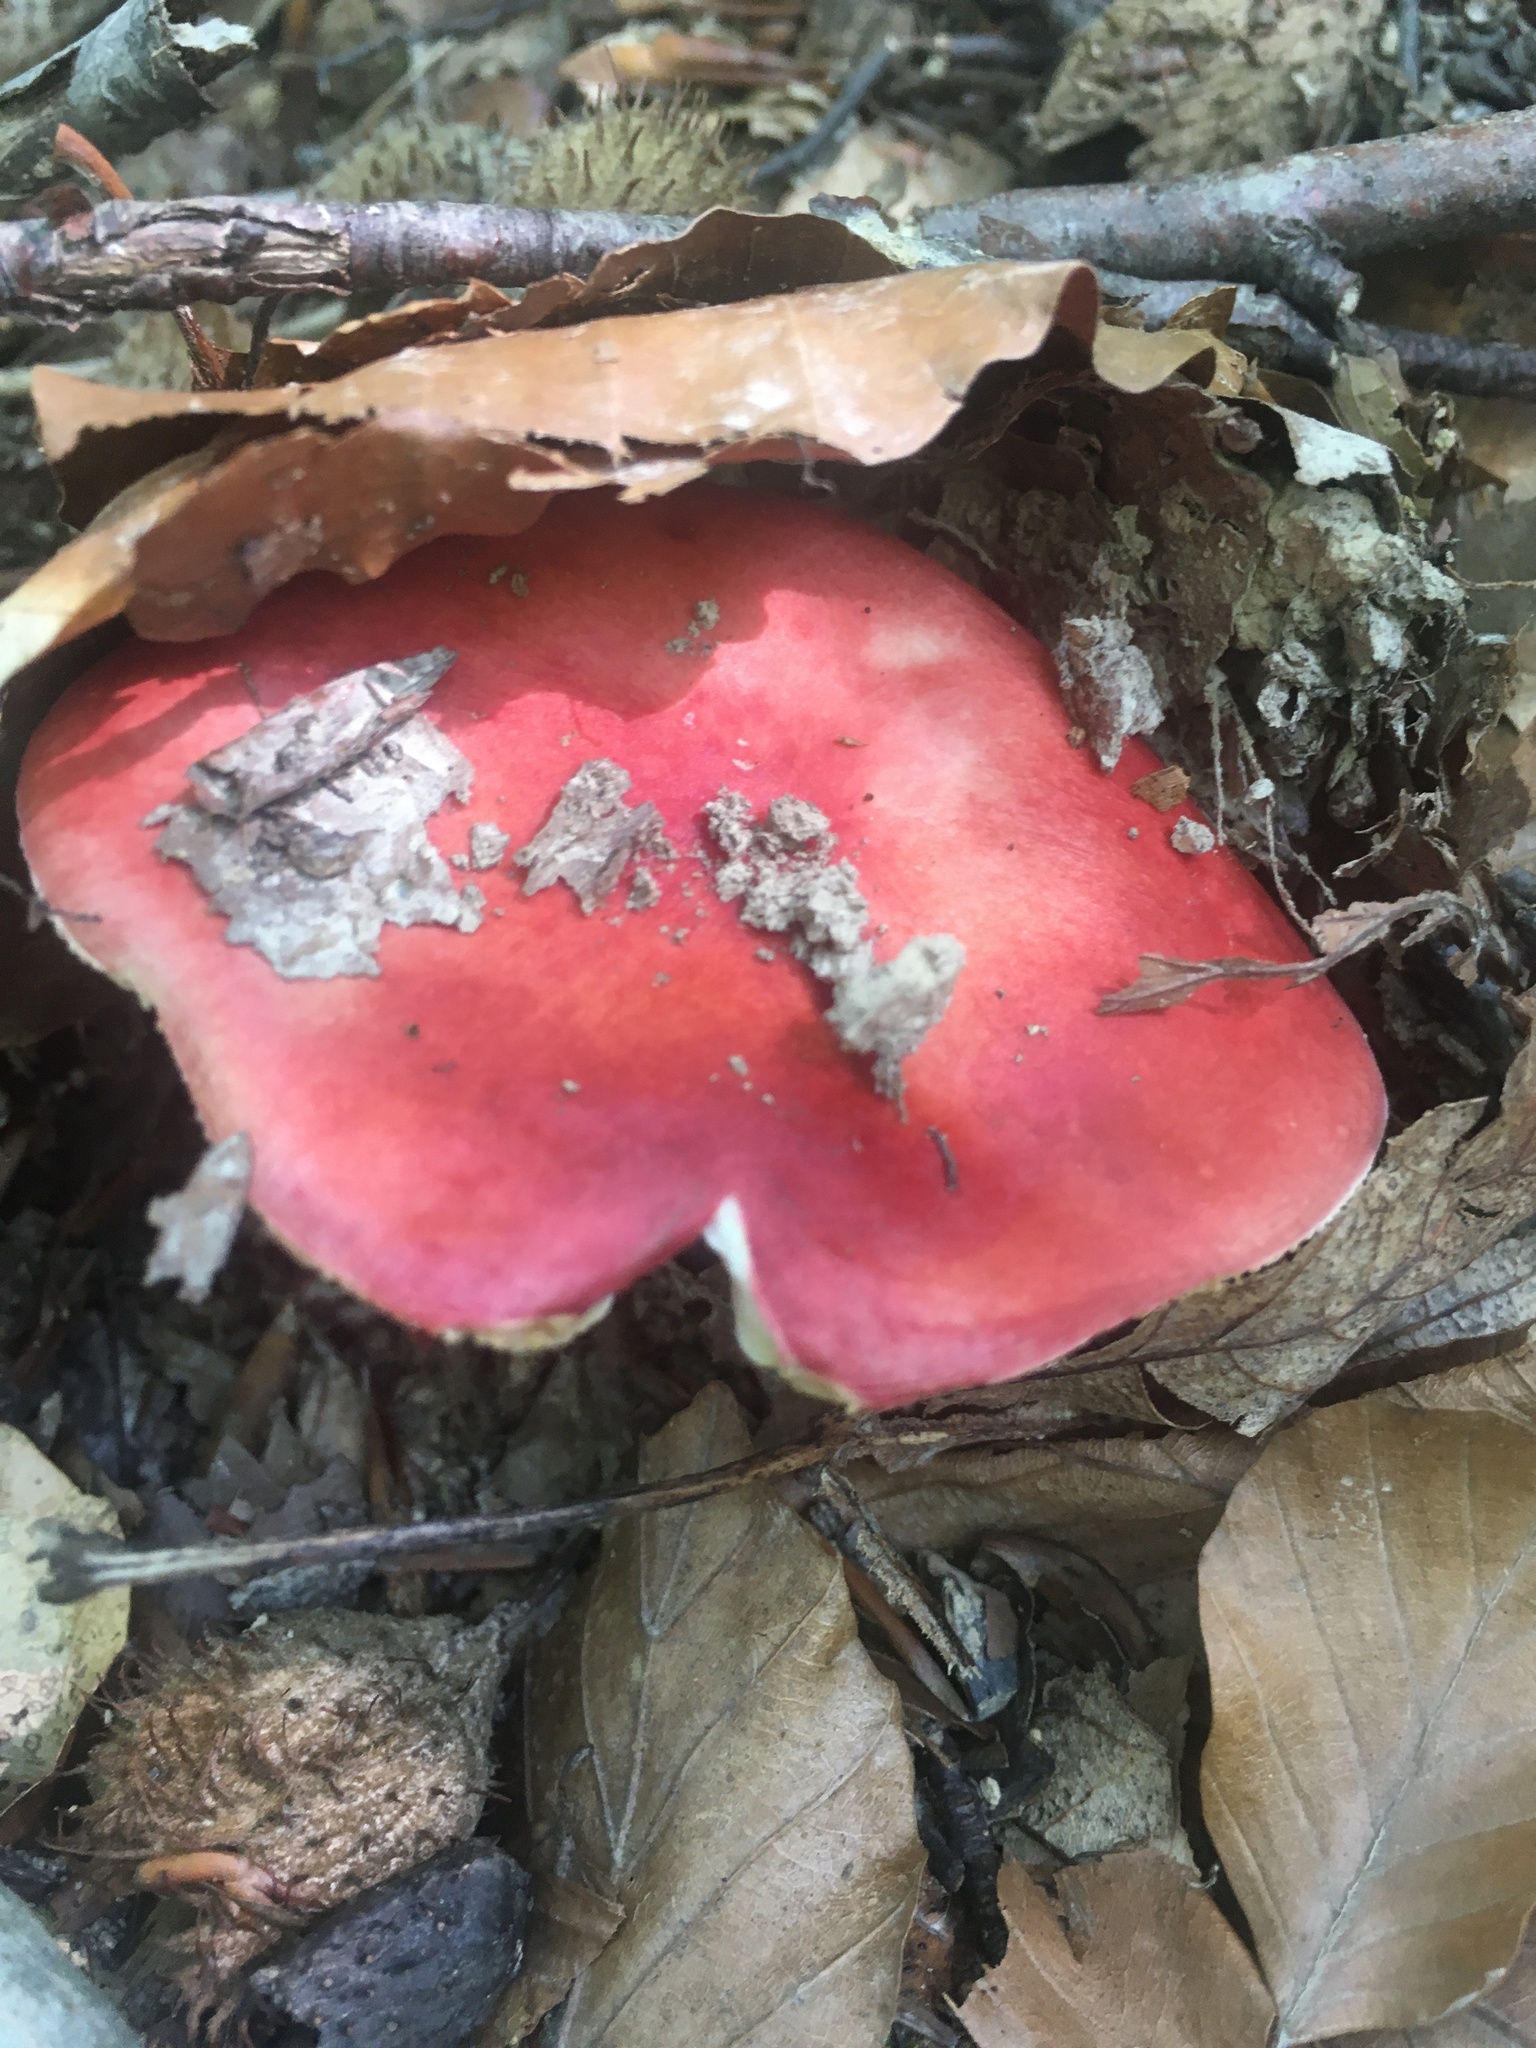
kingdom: Fungi
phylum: Basidiomycota
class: Agaricomycetes
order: Russulales
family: Russulaceae
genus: Russula
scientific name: Russula
